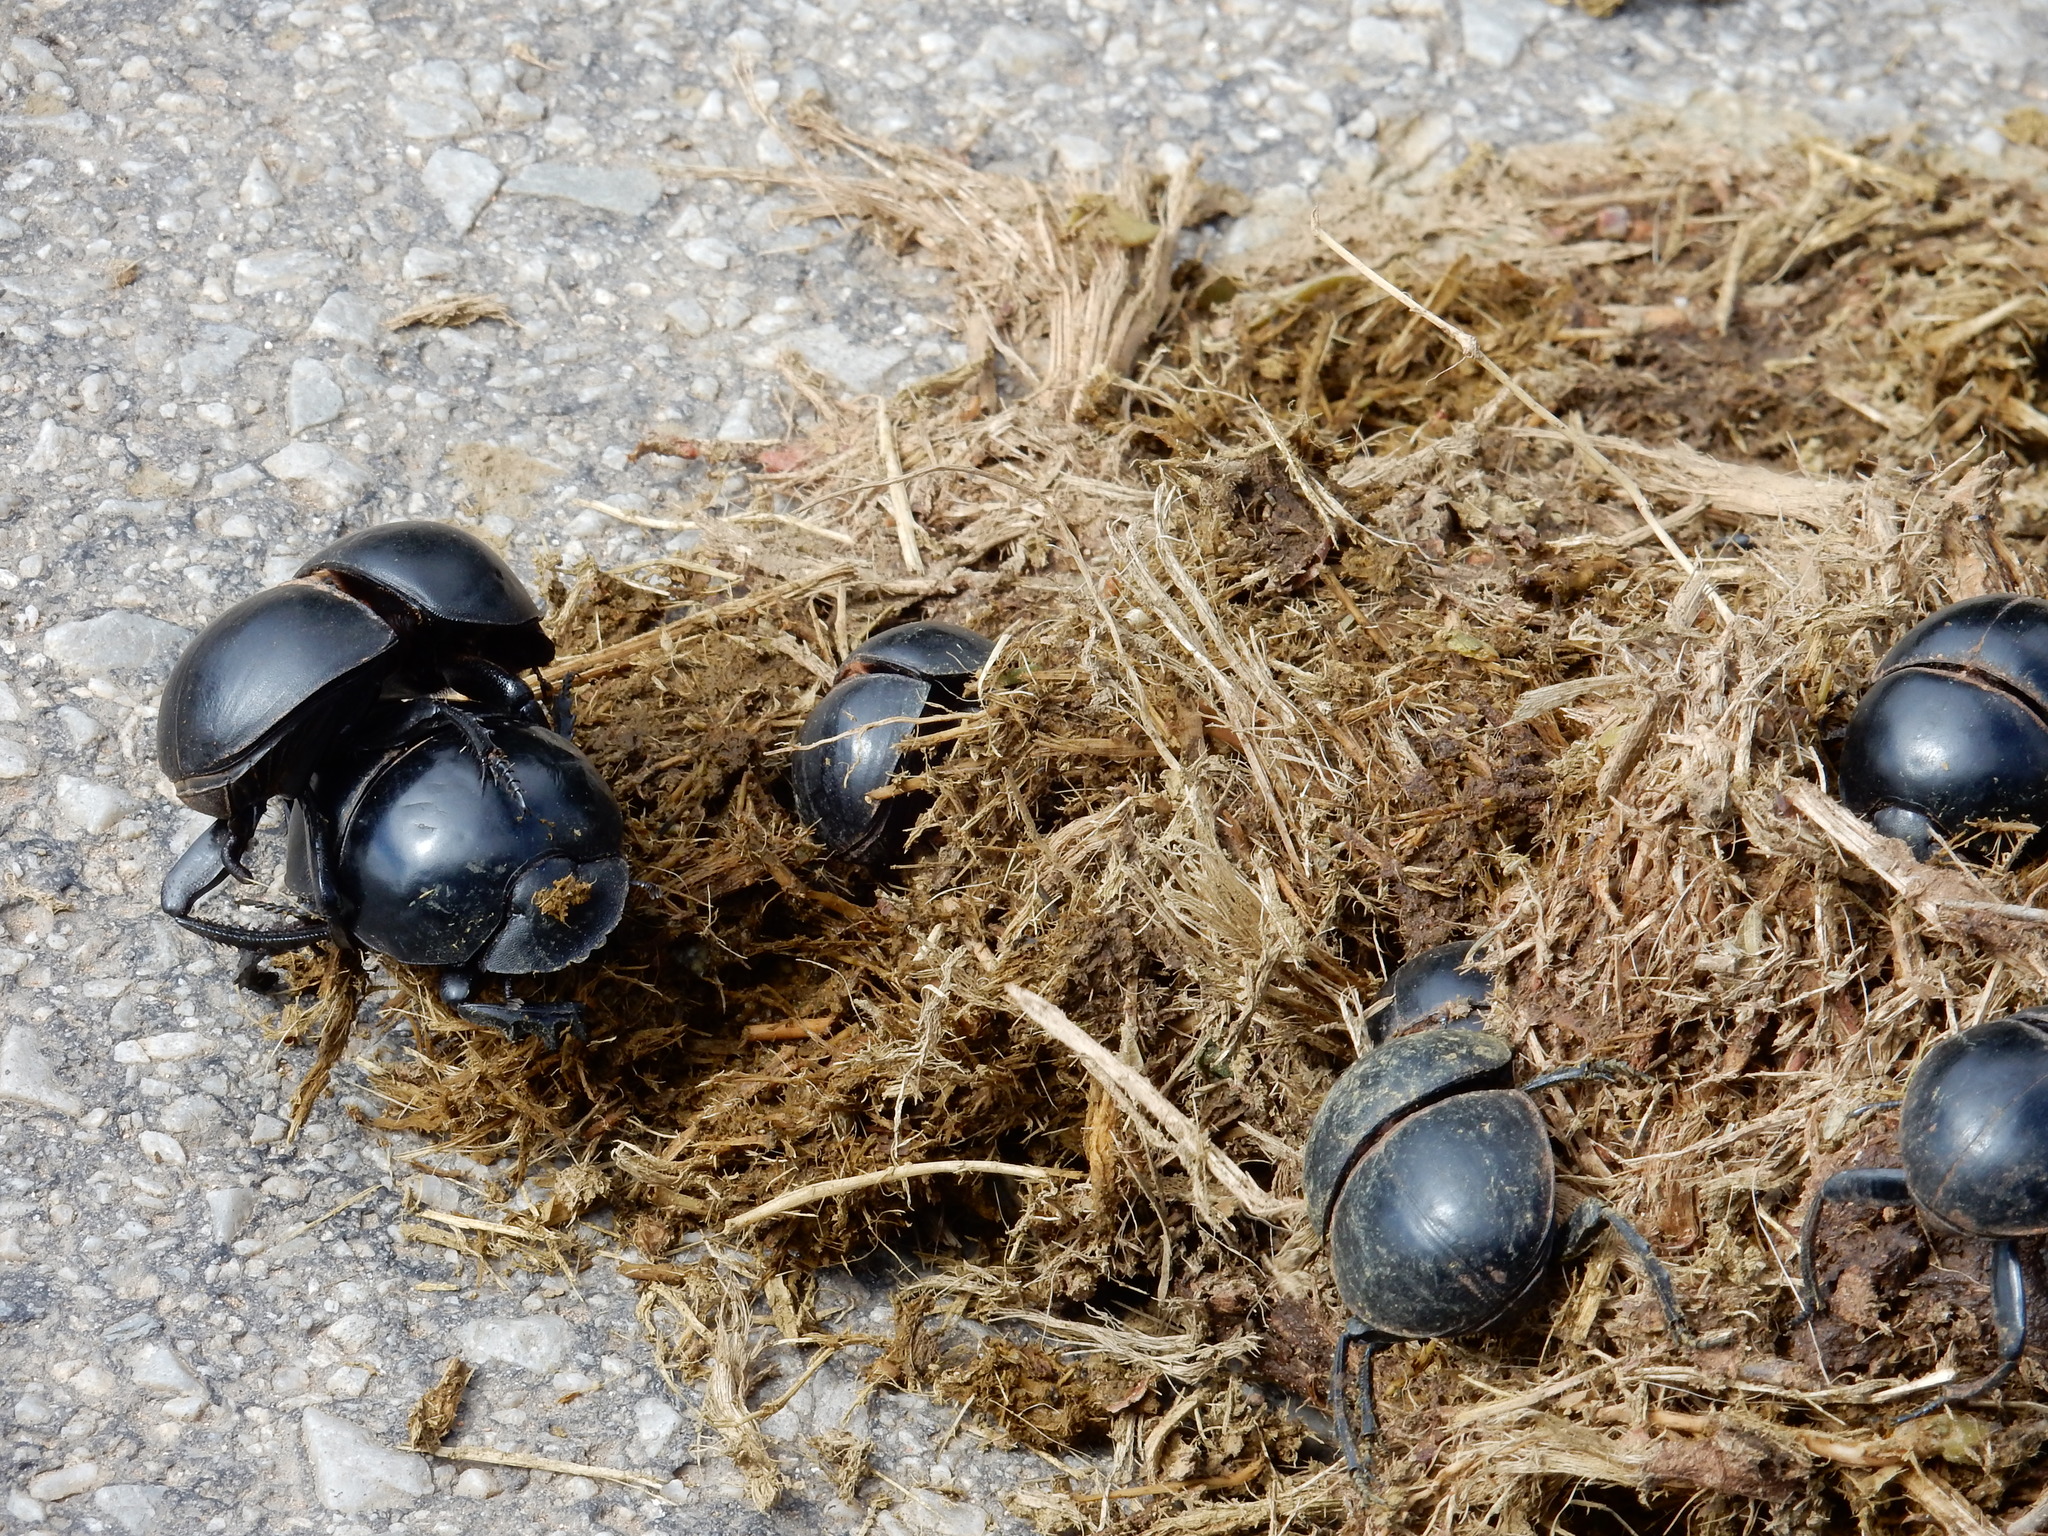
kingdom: Animalia
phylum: Arthropoda
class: Insecta
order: Coleoptera
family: Scarabaeidae
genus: Circellium
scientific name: Circellium bacchus
